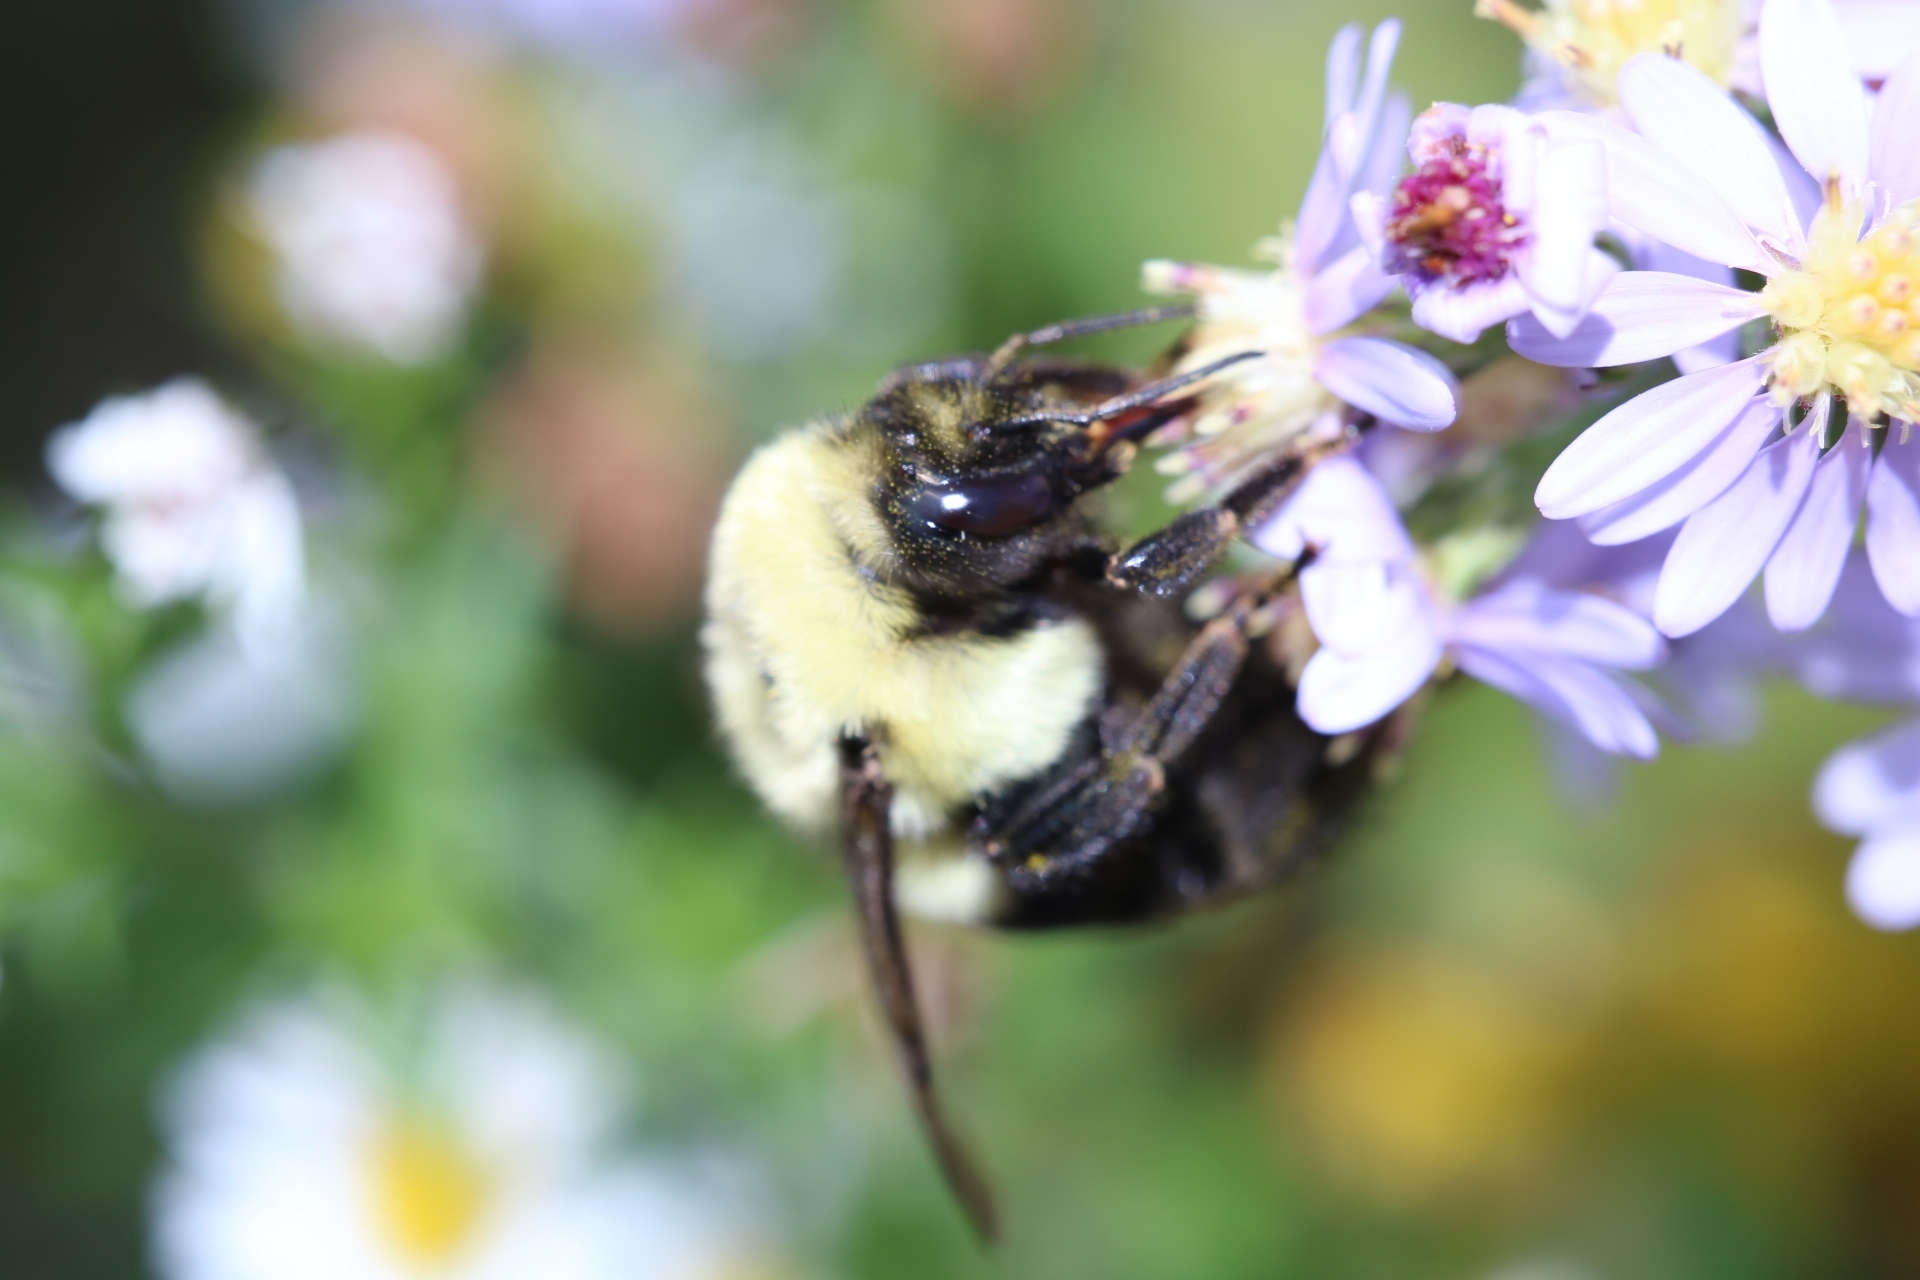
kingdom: Animalia
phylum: Arthropoda
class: Insecta
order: Hymenoptera
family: Apidae
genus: Bombus
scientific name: Bombus impatiens
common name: Common eastern bumble bee
